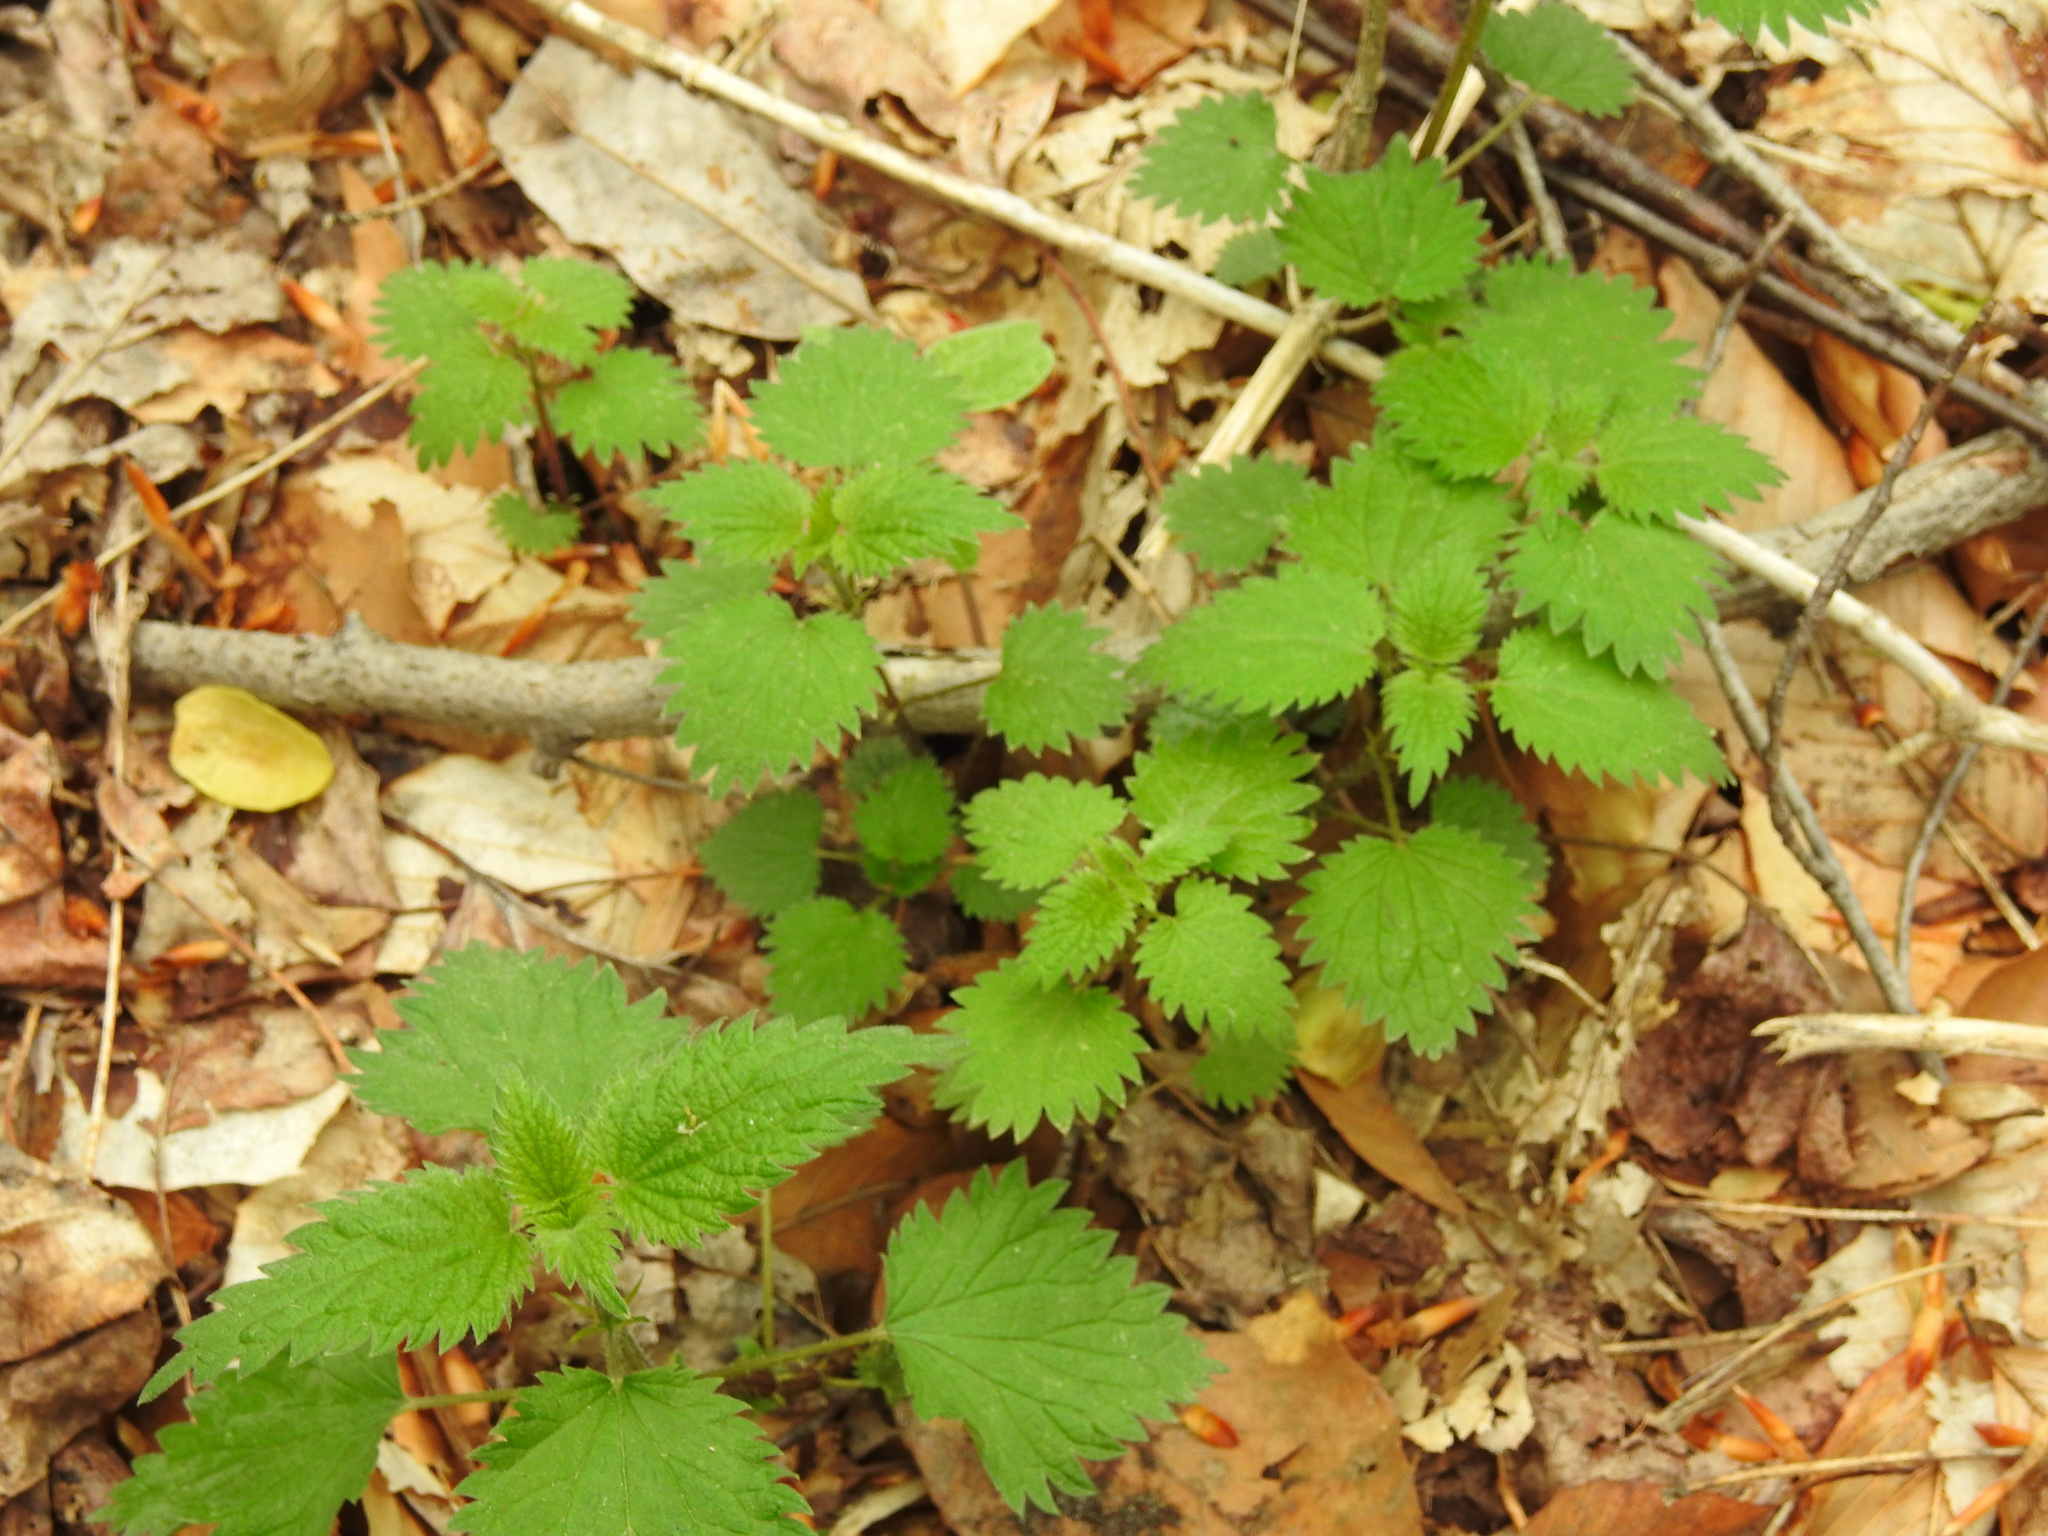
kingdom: Plantae
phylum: Tracheophyta
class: Magnoliopsida
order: Rosales
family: Urticaceae
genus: Urtica
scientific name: Urtica dioica
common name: Common nettle
